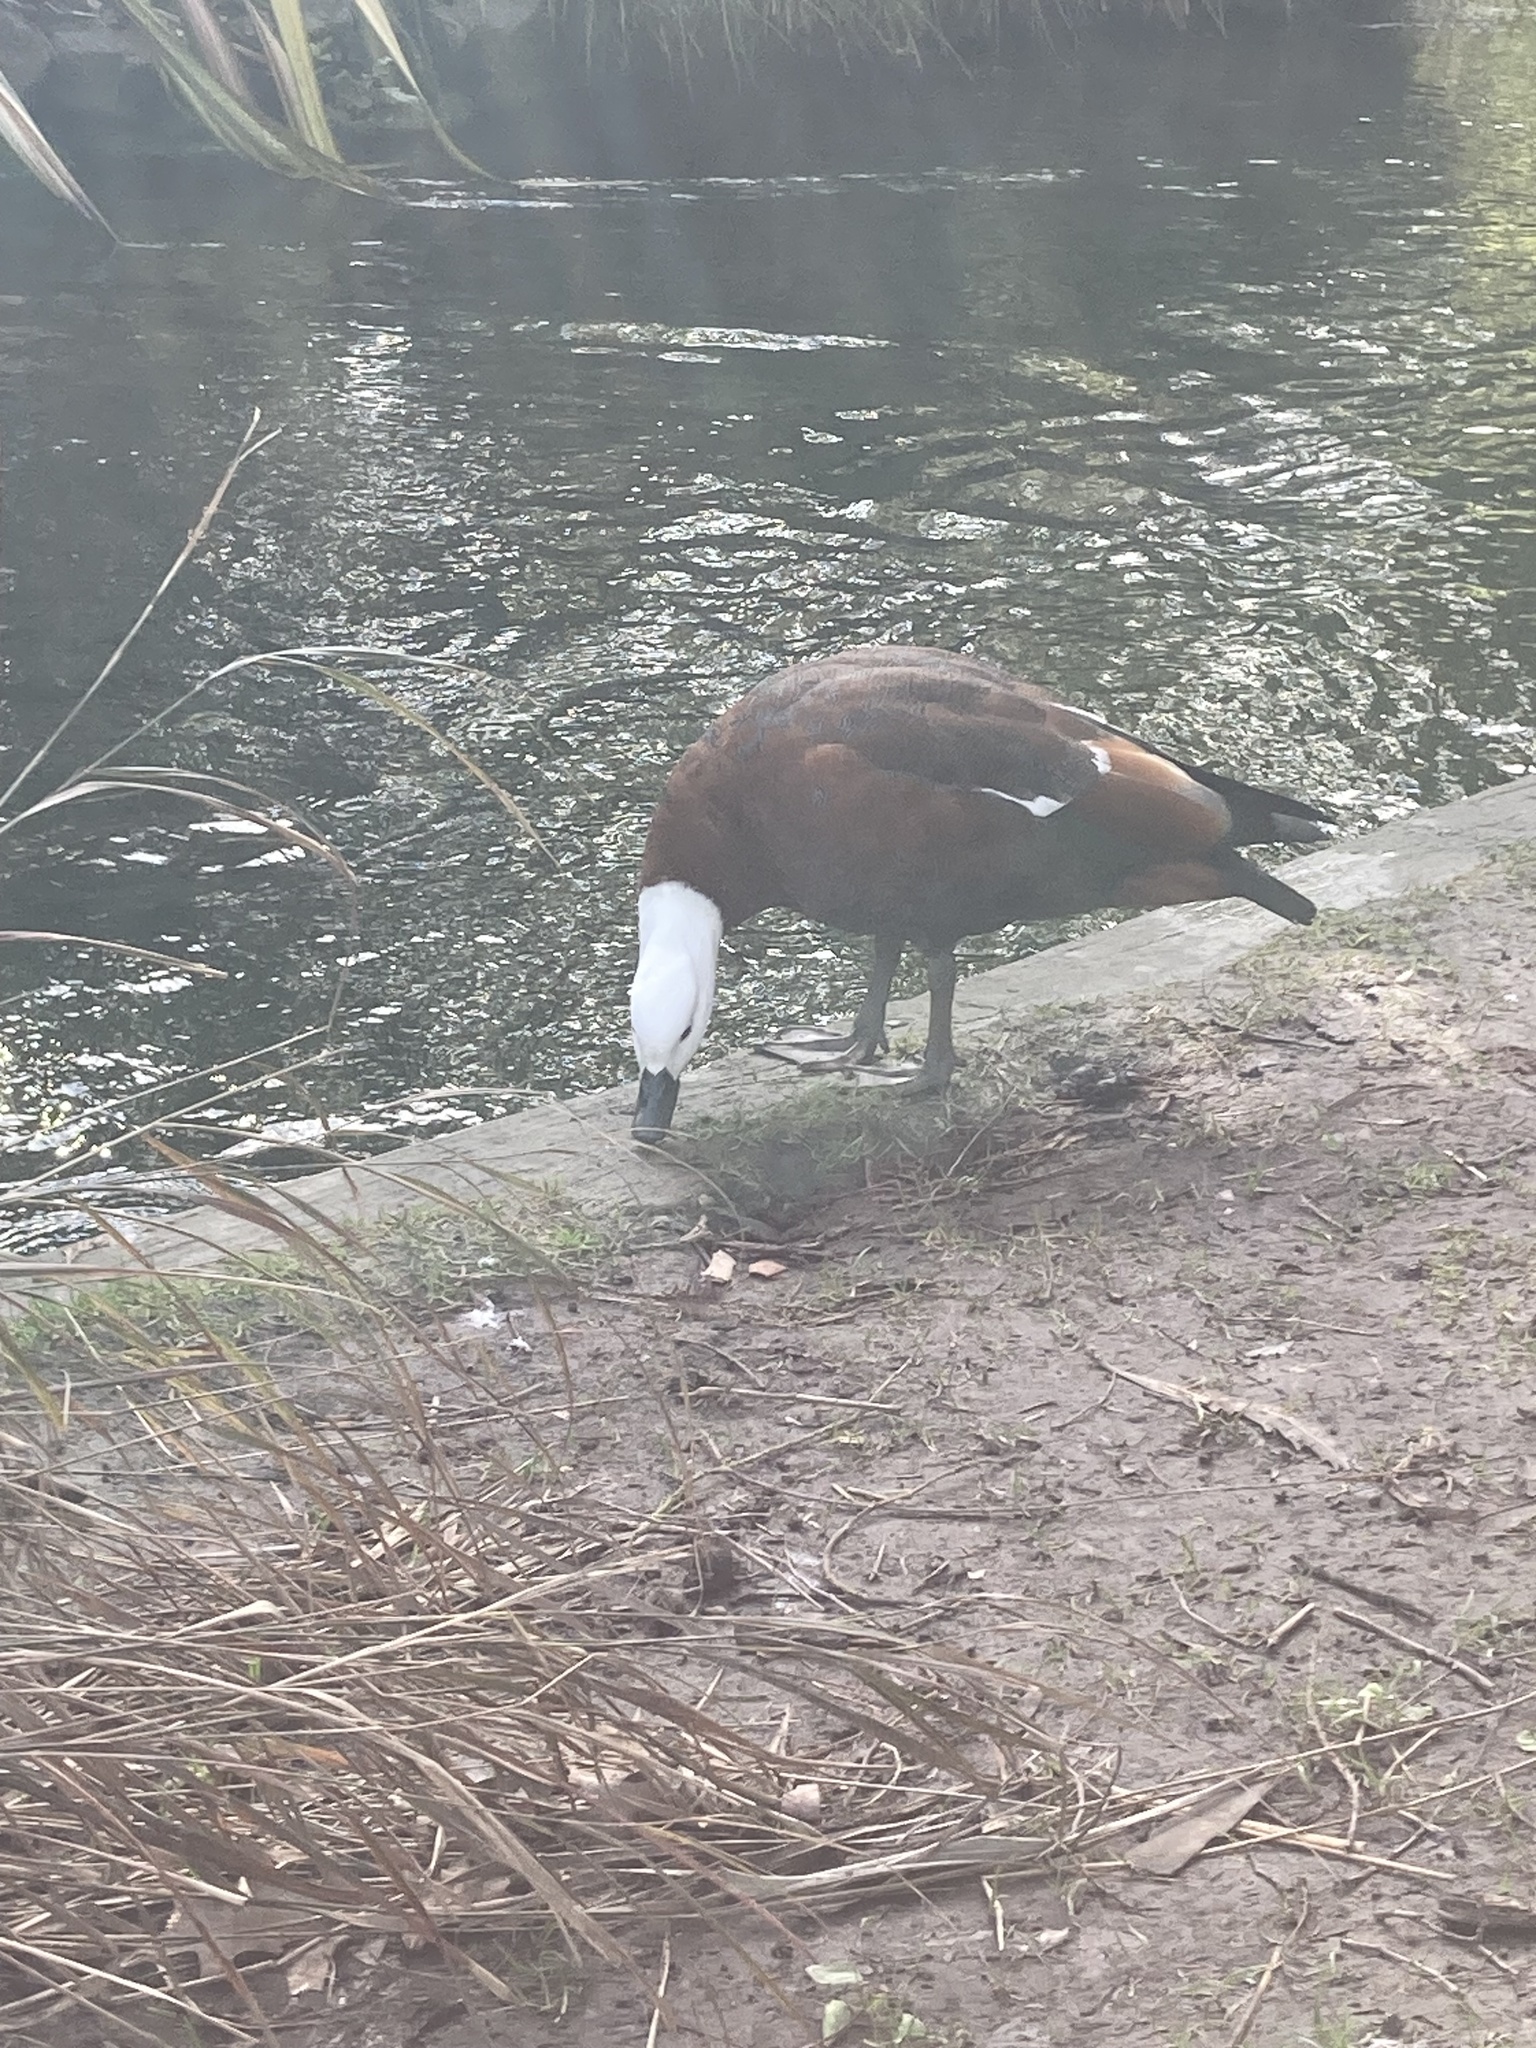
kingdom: Animalia
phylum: Chordata
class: Aves
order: Anseriformes
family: Anatidae
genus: Tadorna
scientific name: Tadorna variegata
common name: Paradise shelduck
